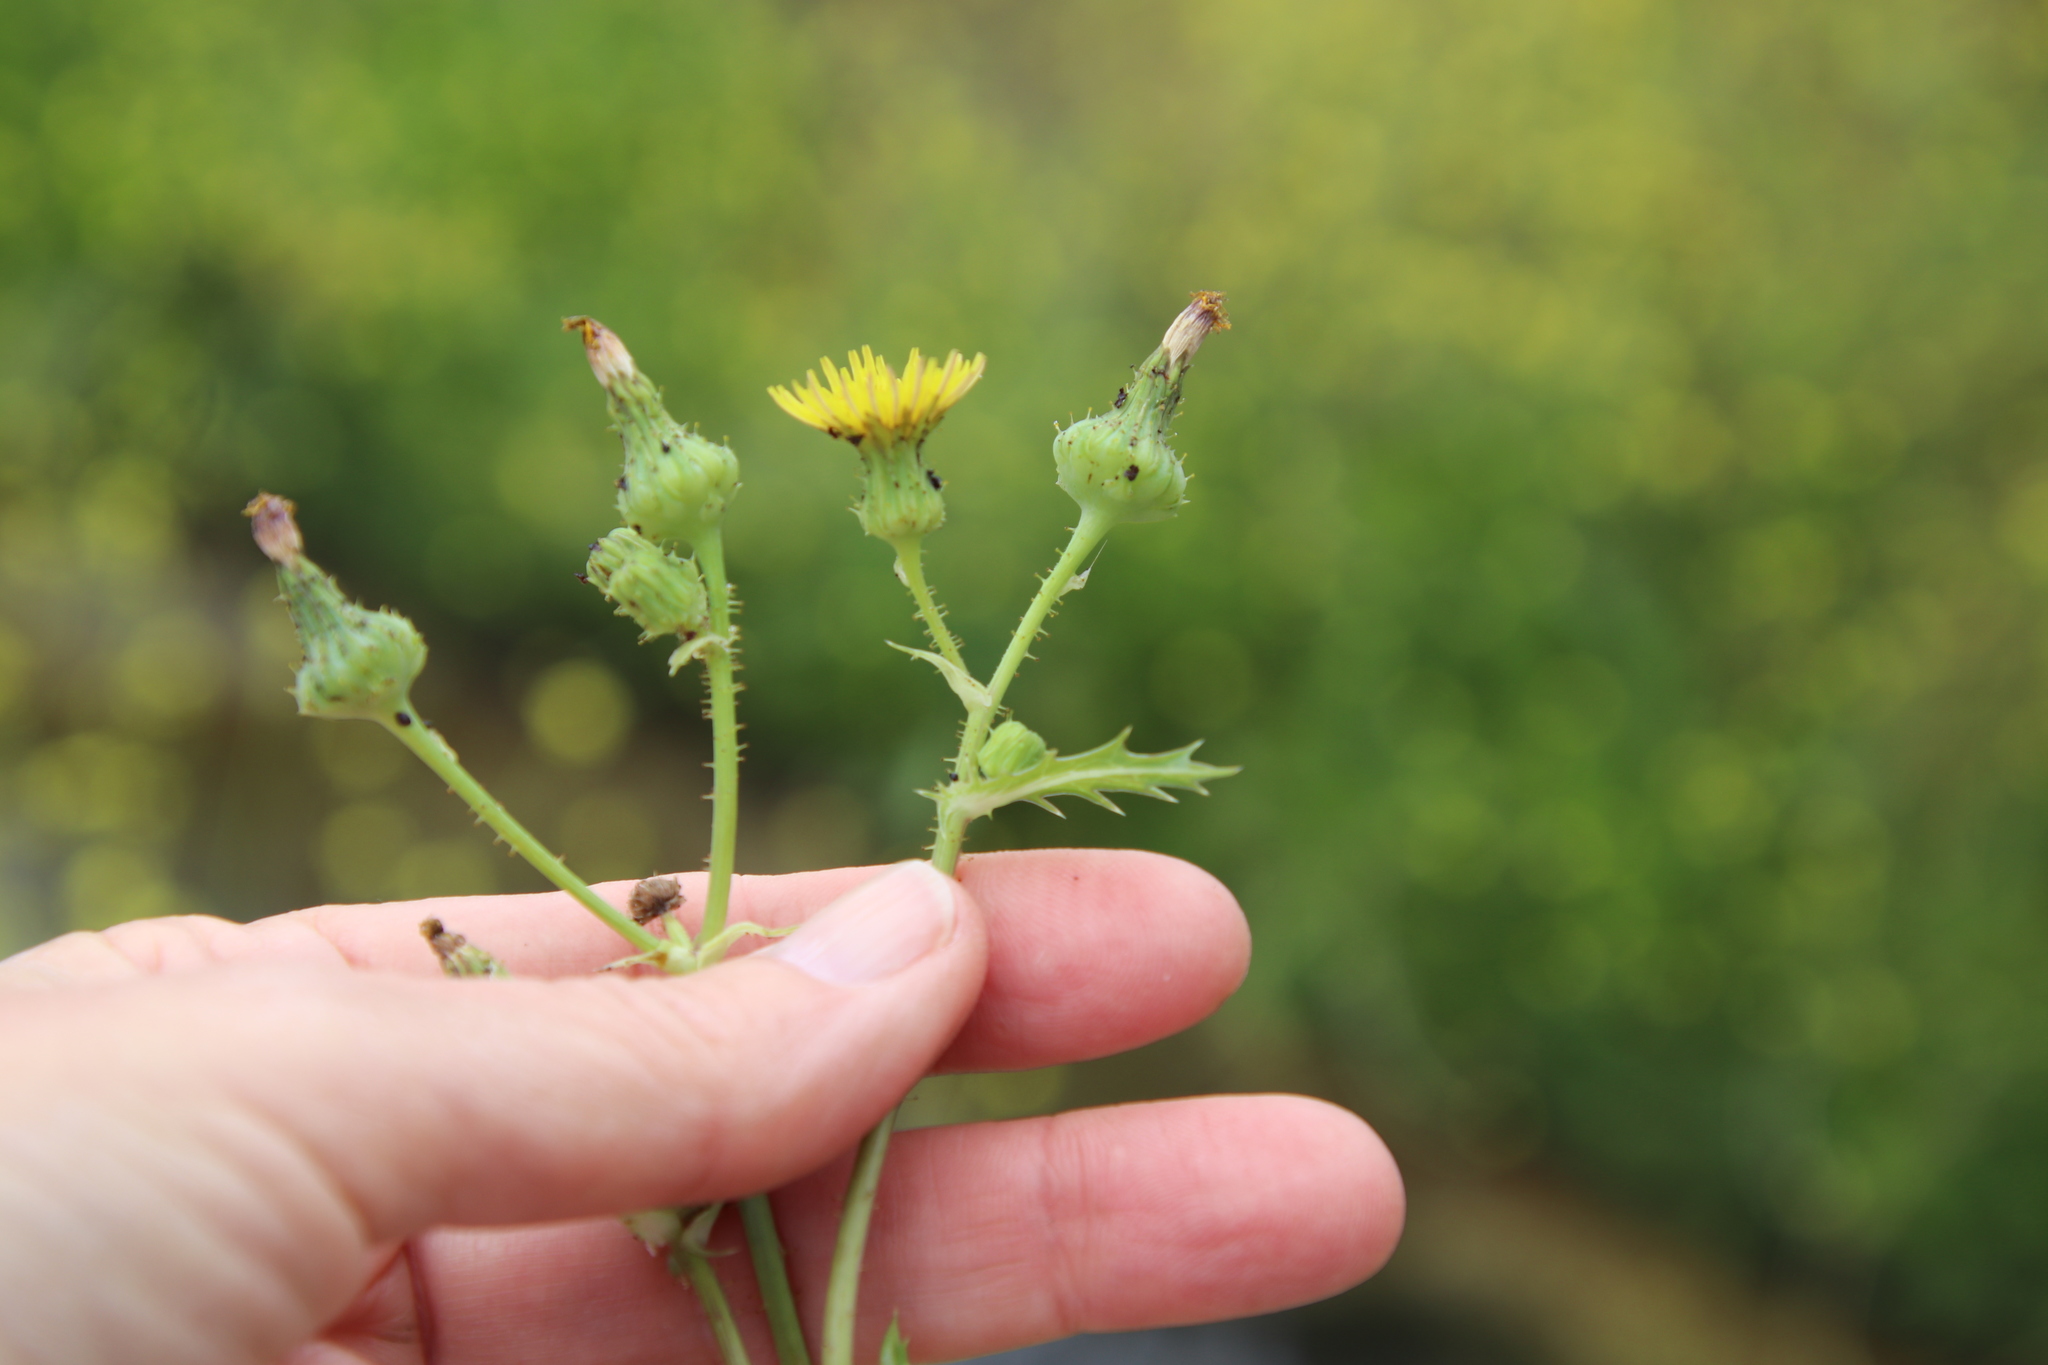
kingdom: Plantae
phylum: Tracheophyta
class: Magnoliopsida
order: Asterales
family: Asteraceae
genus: Sonchus
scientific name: Sonchus oleraceus
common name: Common sowthistle
